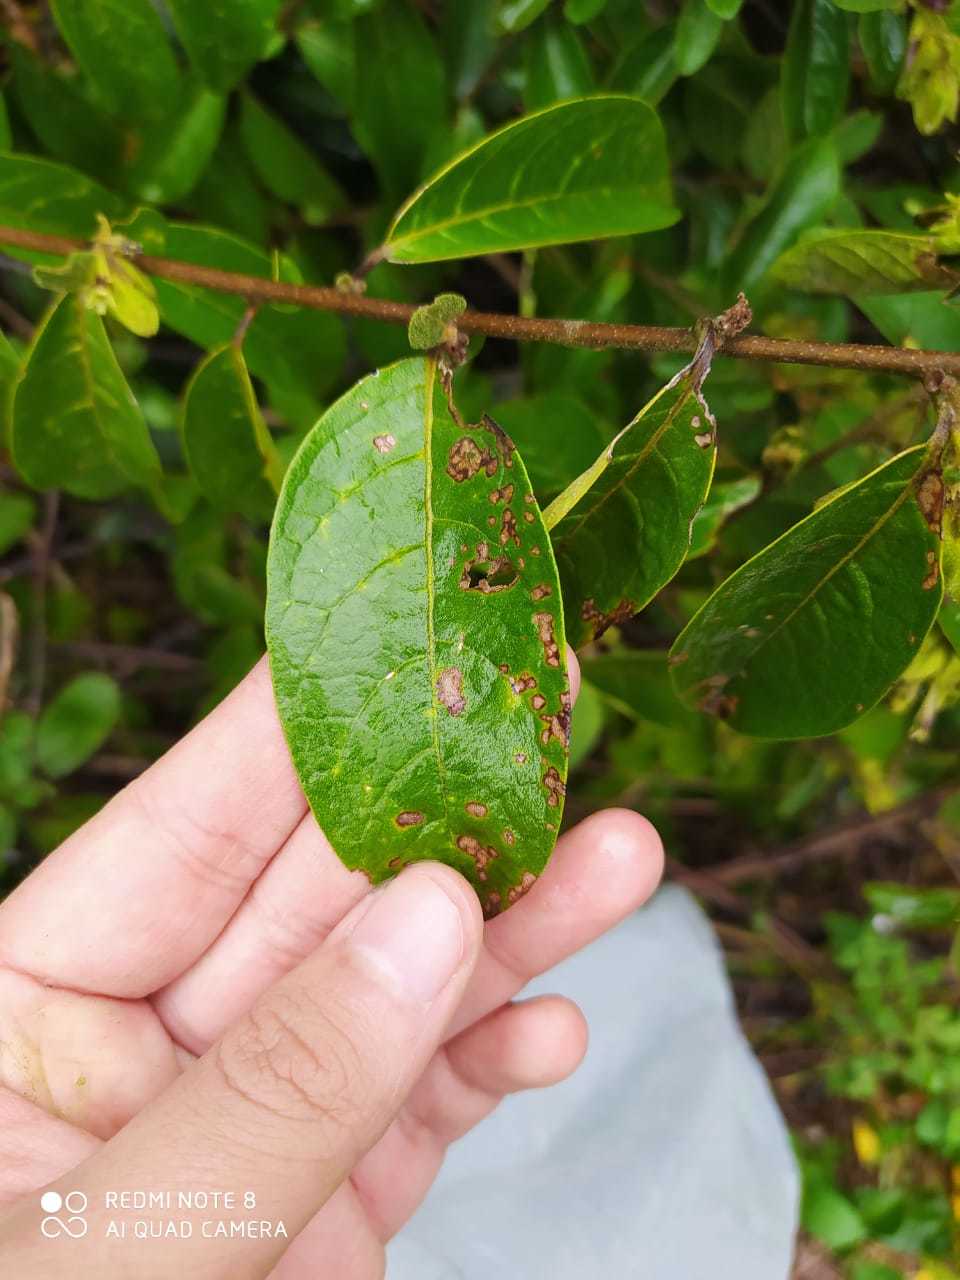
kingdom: Plantae
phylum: Tracheophyta
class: Magnoliopsida
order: Solanales
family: Solanaceae
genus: Cestrum
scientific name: Cestrum tomentosum
